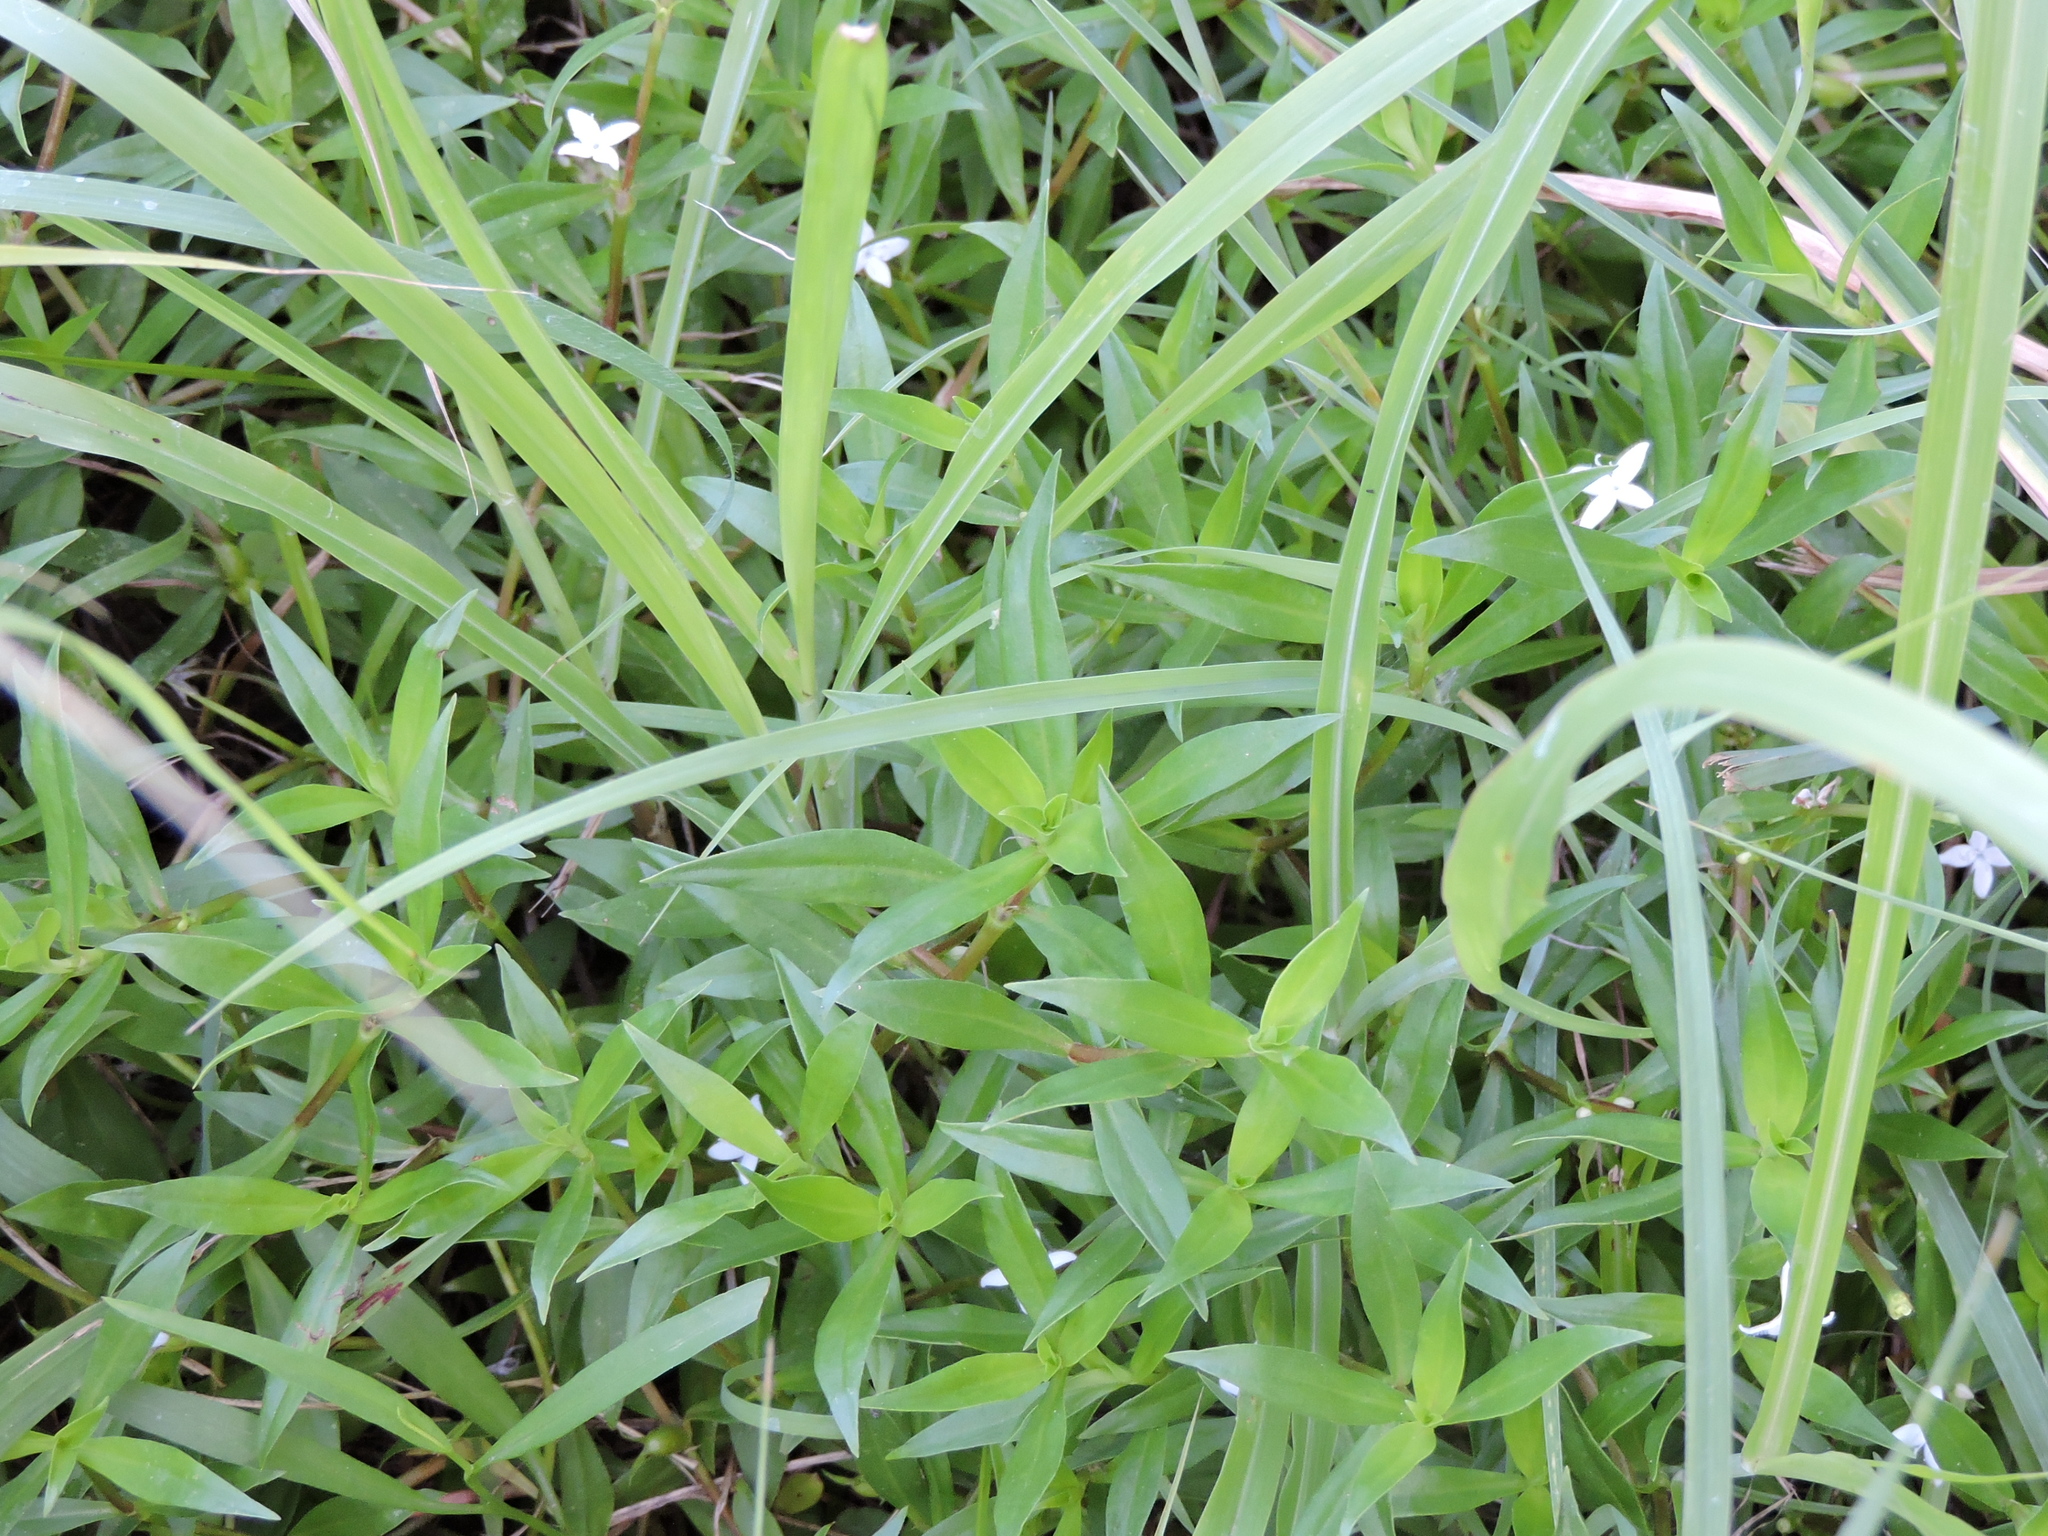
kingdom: Plantae
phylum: Tracheophyta
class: Magnoliopsida
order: Gentianales
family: Rubiaceae
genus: Diodia
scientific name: Diodia virginiana
